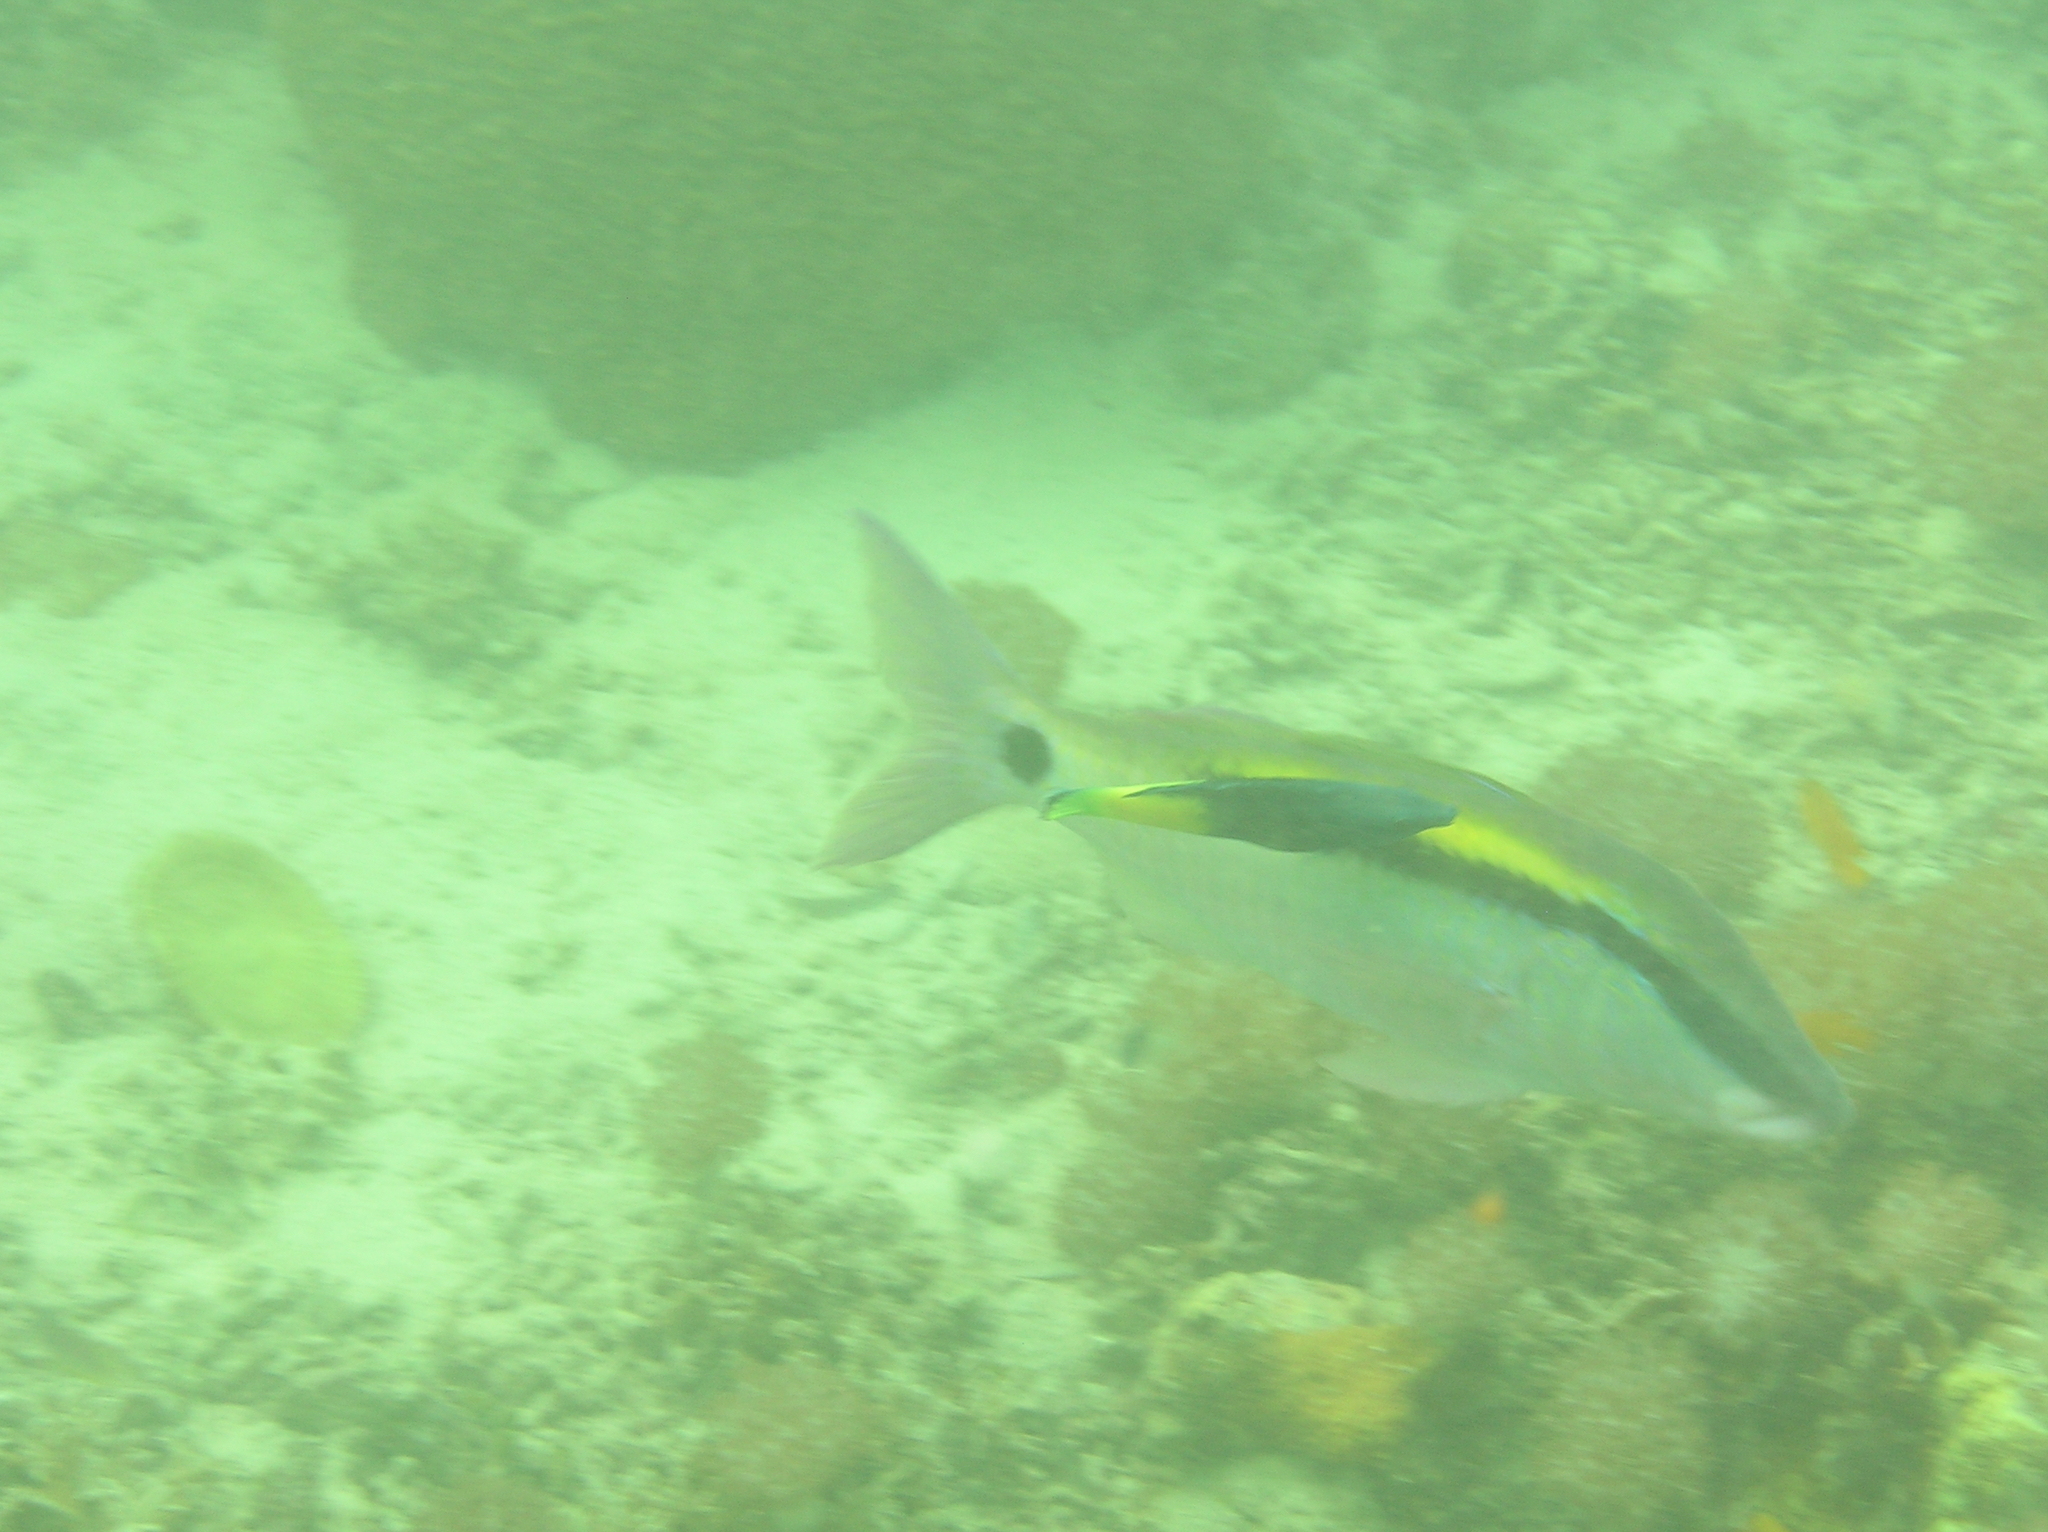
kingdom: Animalia
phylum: Chordata
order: Perciformes
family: Mullidae
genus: Parupeneus
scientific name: Parupeneus barberinus
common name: Dash-and-dot goatfish
